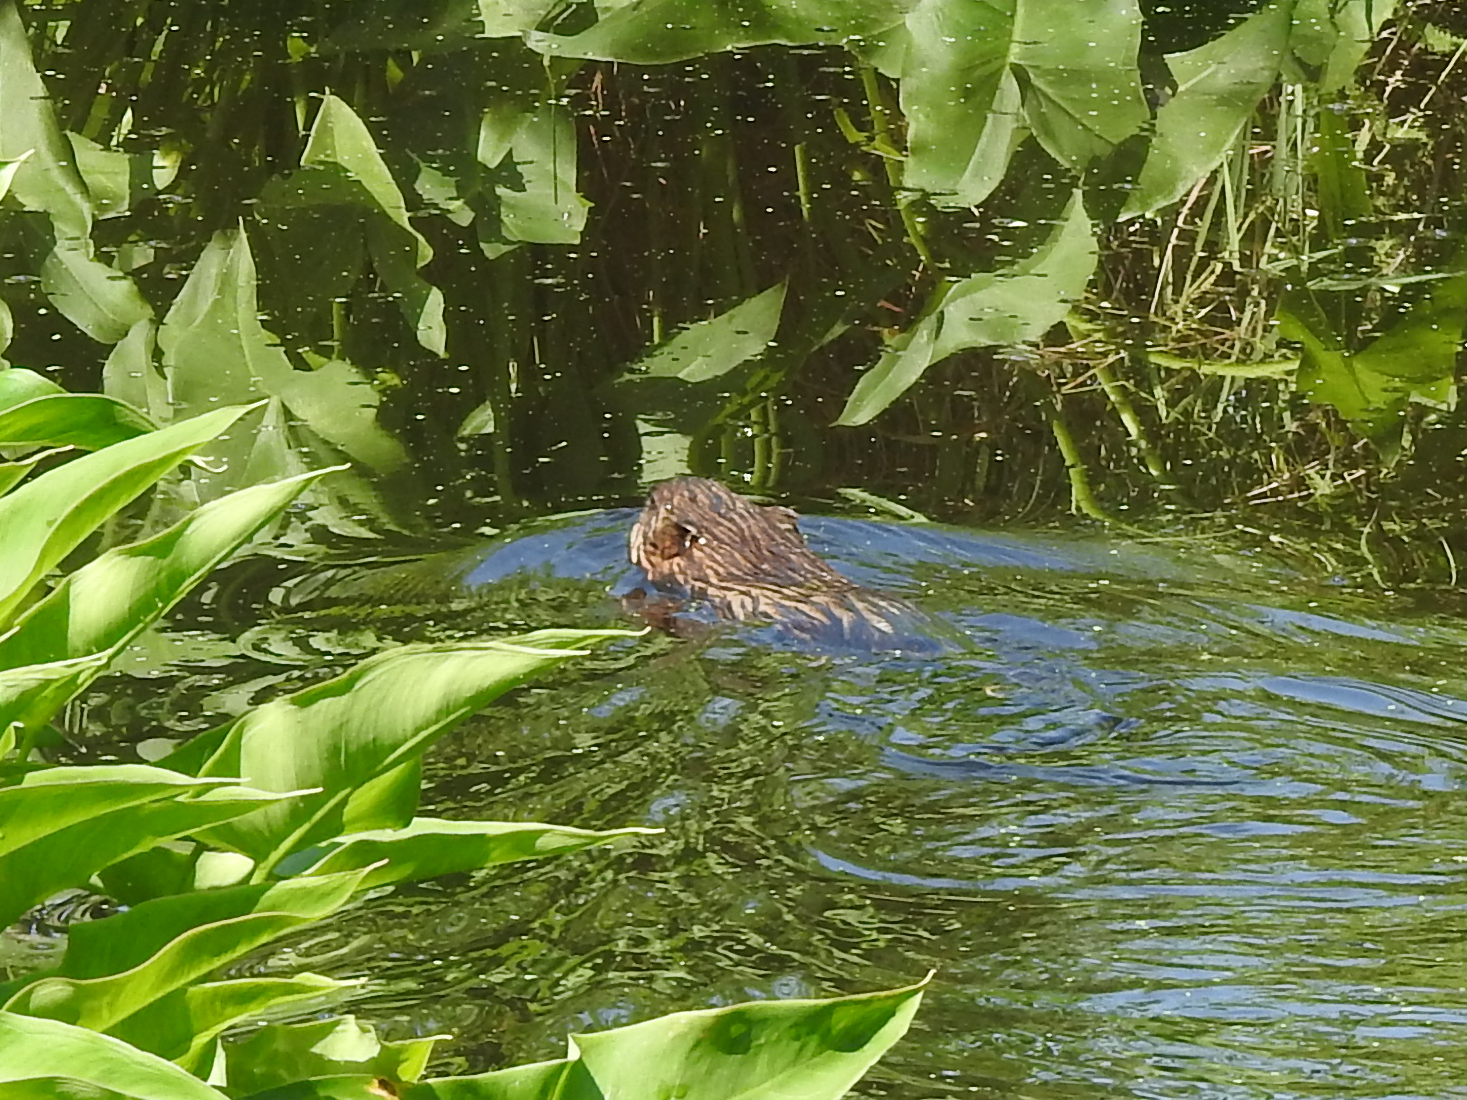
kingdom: Animalia
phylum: Chordata
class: Mammalia
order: Rodentia
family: Cricetidae
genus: Ondatra
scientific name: Ondatra zibethicus
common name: Muskrat
